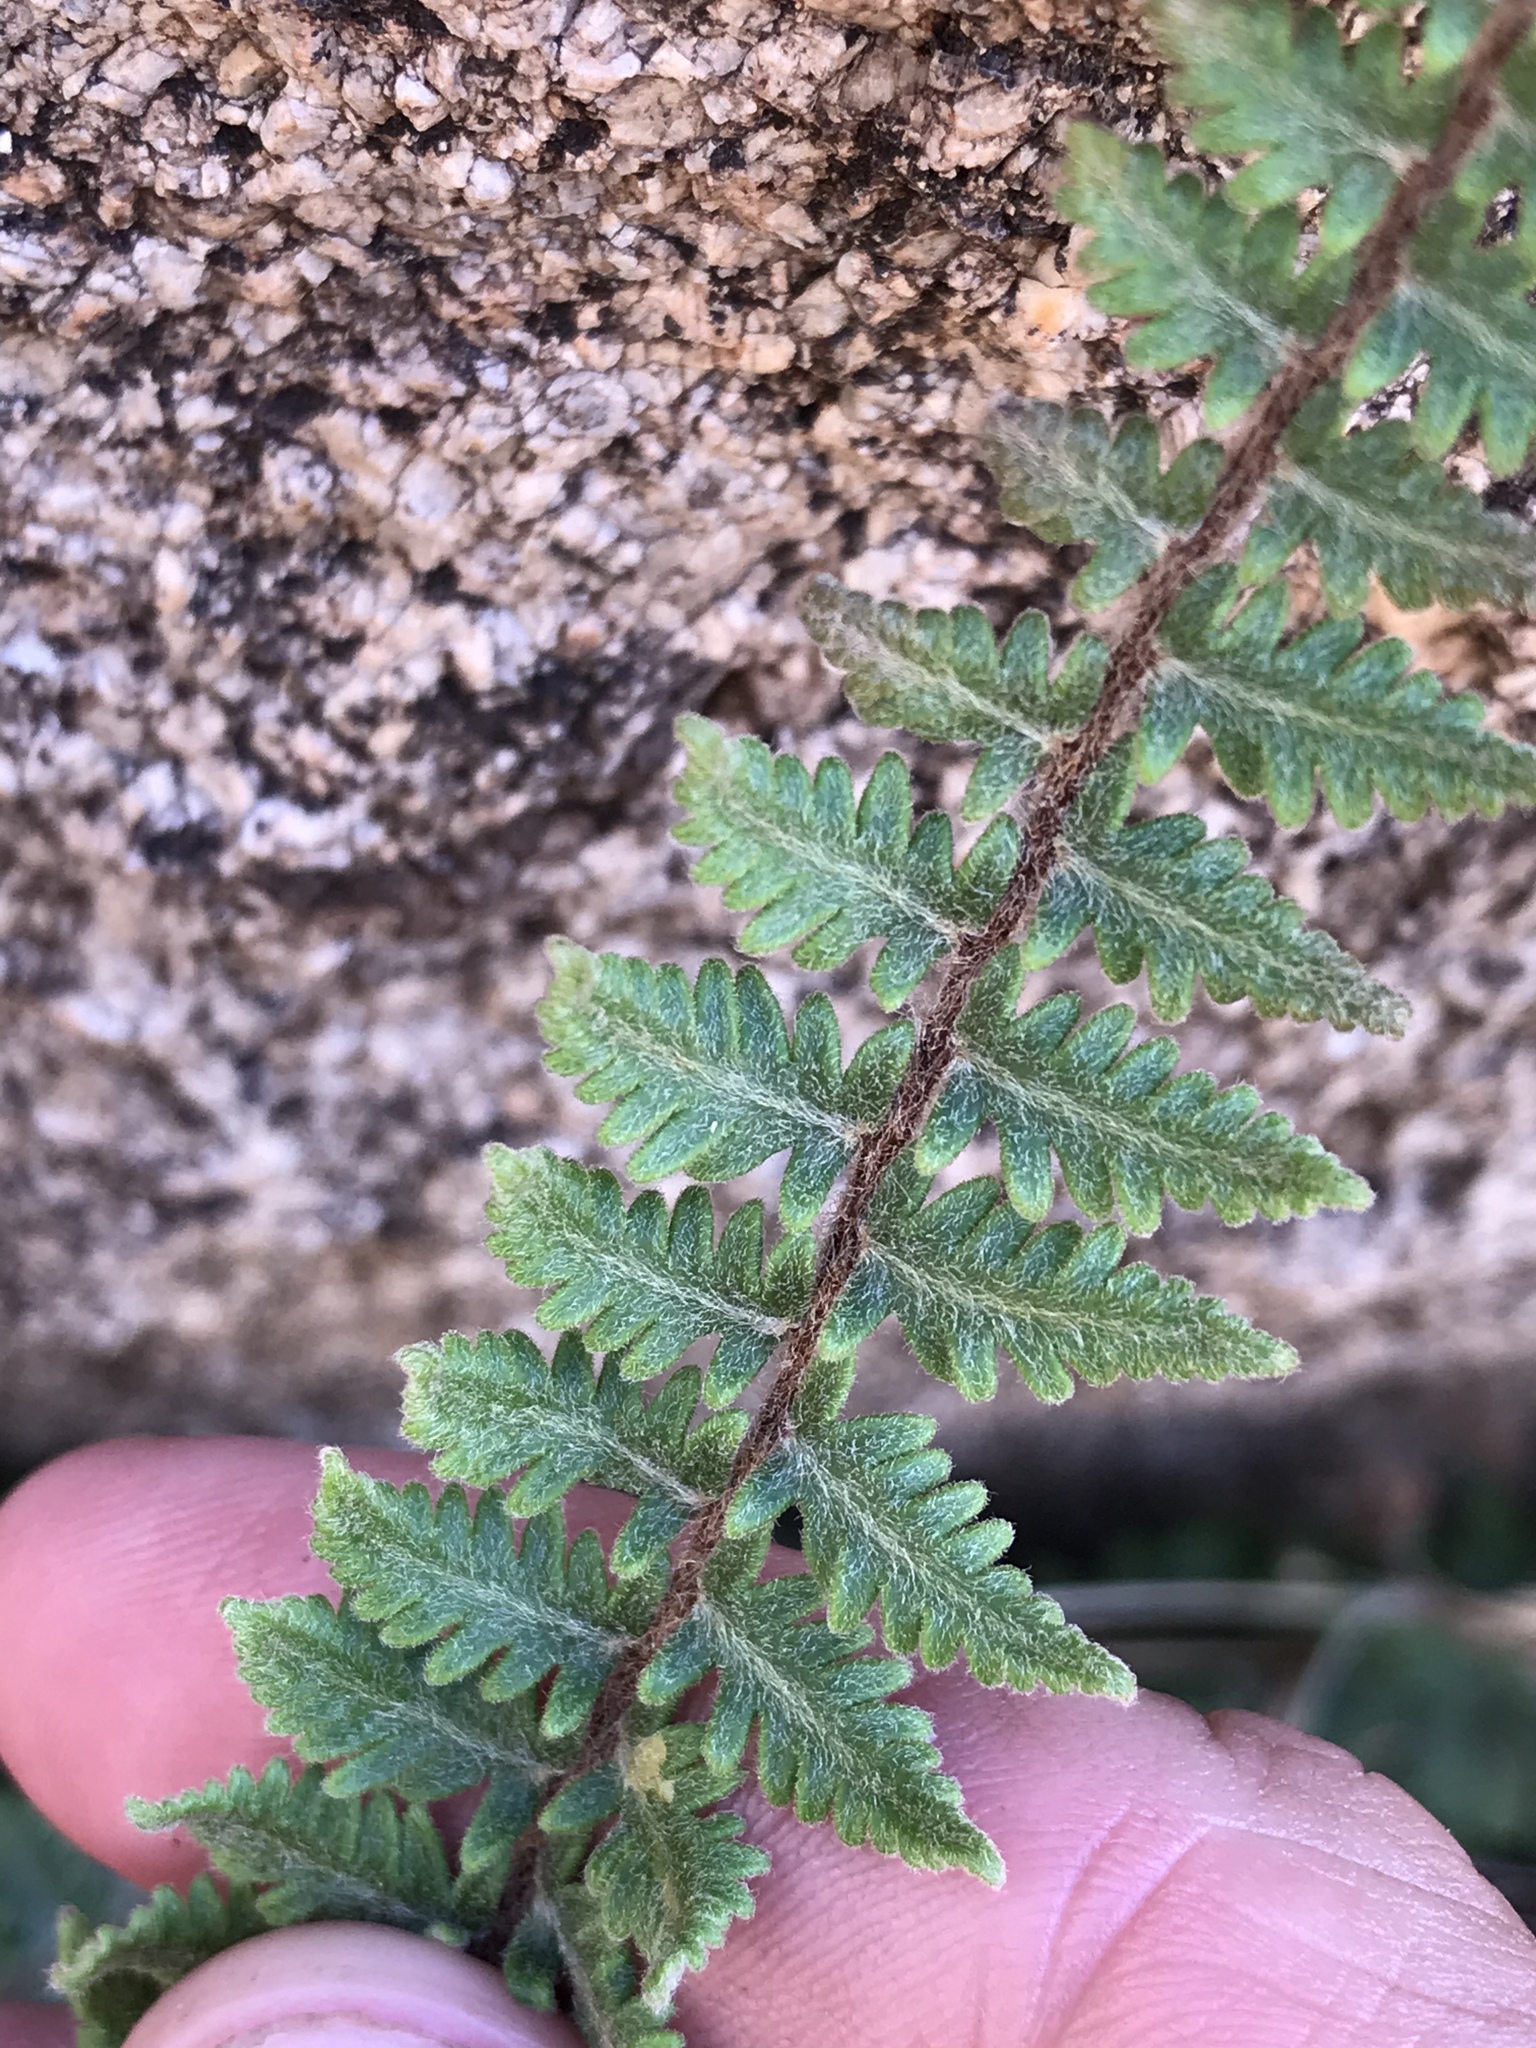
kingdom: Plantae
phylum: Tracheophyta
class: Polypodiopsida
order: Polypodiales
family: Pteridaceae
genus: Myriopteris
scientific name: Myriopteris aurea
